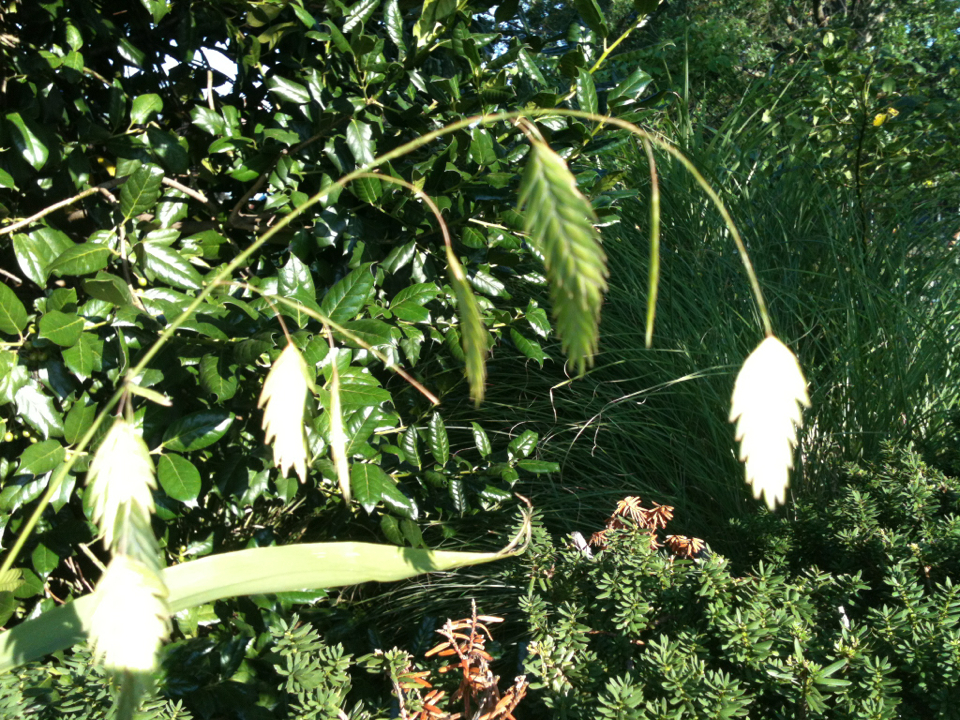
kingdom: Plantae
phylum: Tracheophyta
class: Liliopsida
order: Poales
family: Poaceae
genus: Chasmanthium
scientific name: Chasmanthium latifolium
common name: Broad-leaved chasmanthium
